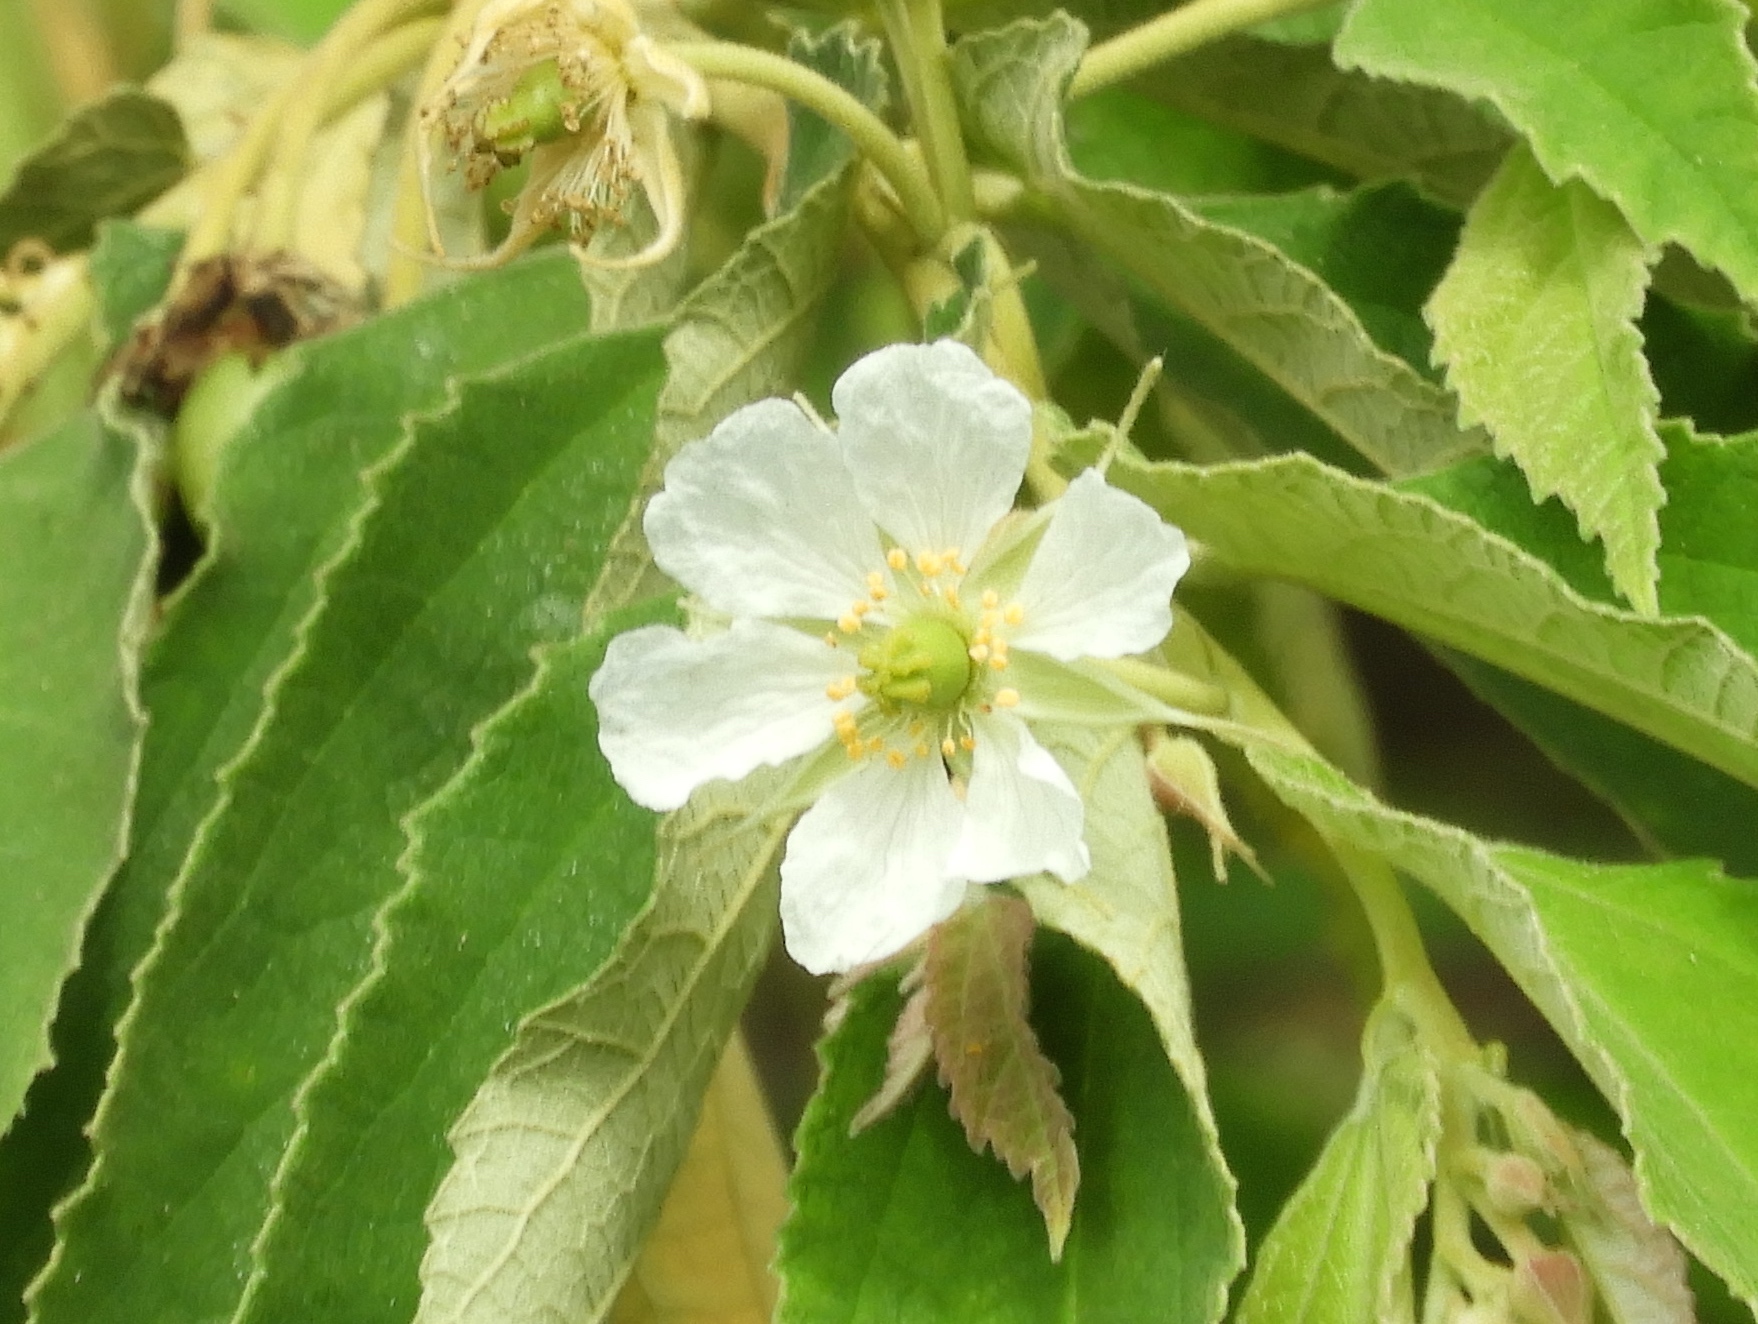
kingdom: Plantae
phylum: Tracheophyta
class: Magnoliopsida
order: Malvales
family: Muntingiaceae
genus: Muntingia
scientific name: Muntingia calabura
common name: Strawberrytree
